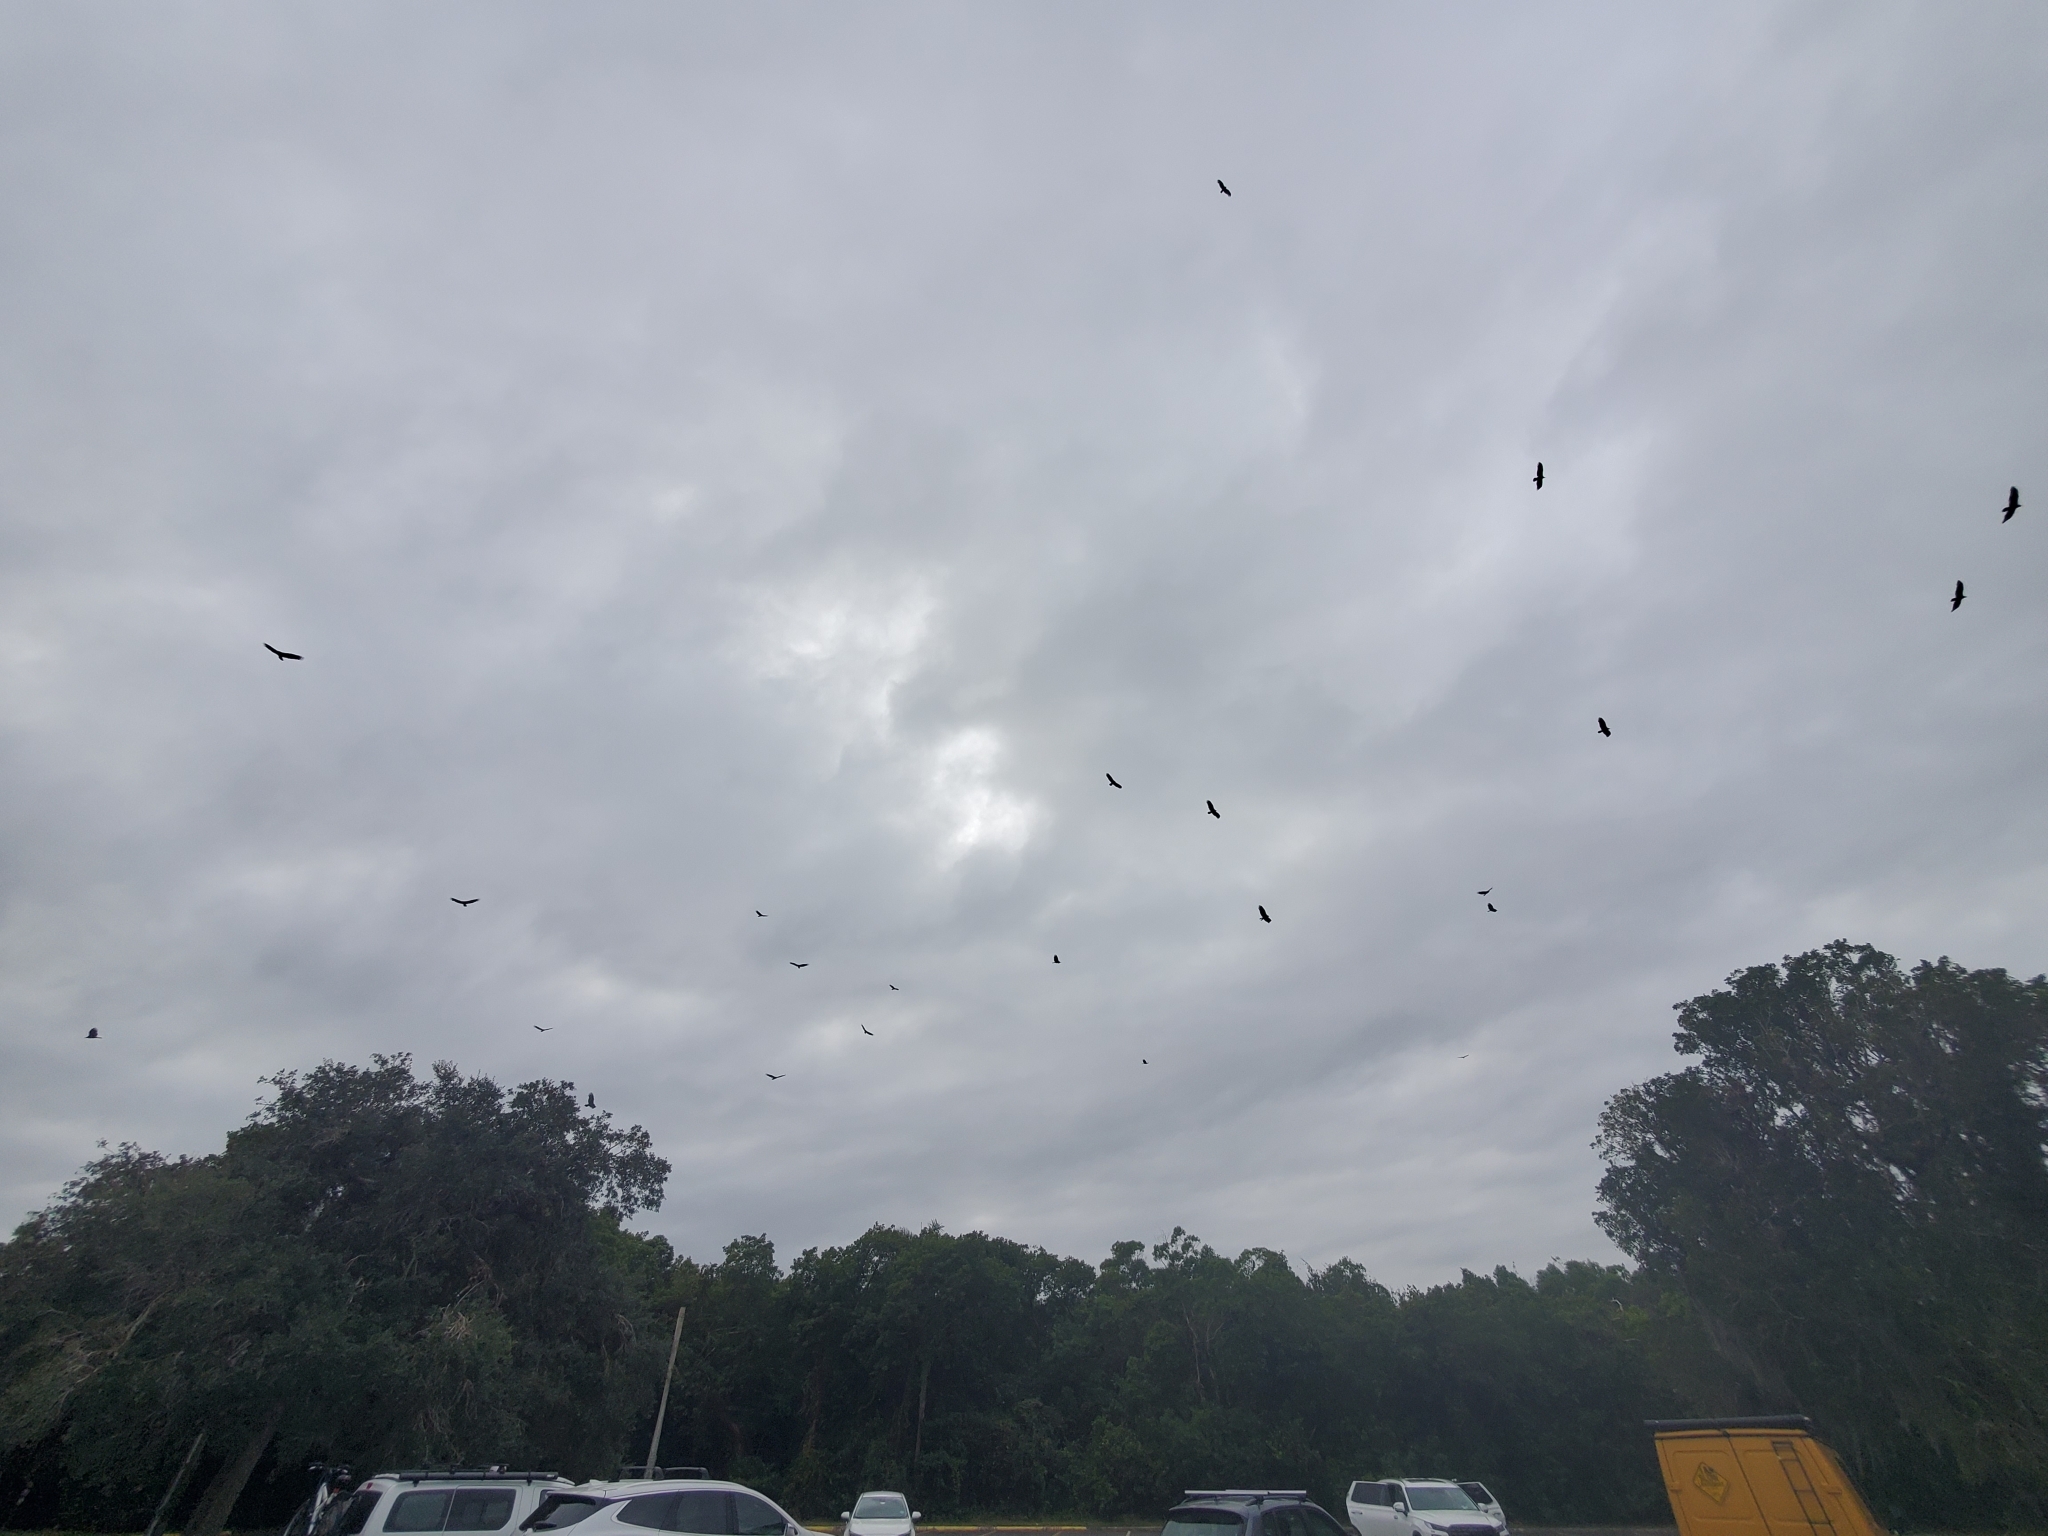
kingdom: Animalia
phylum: Chordata
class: Aves
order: Accipitriformes
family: Cathartidae
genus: Cathartes
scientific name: Cathartes aura
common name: Turkey vulture
